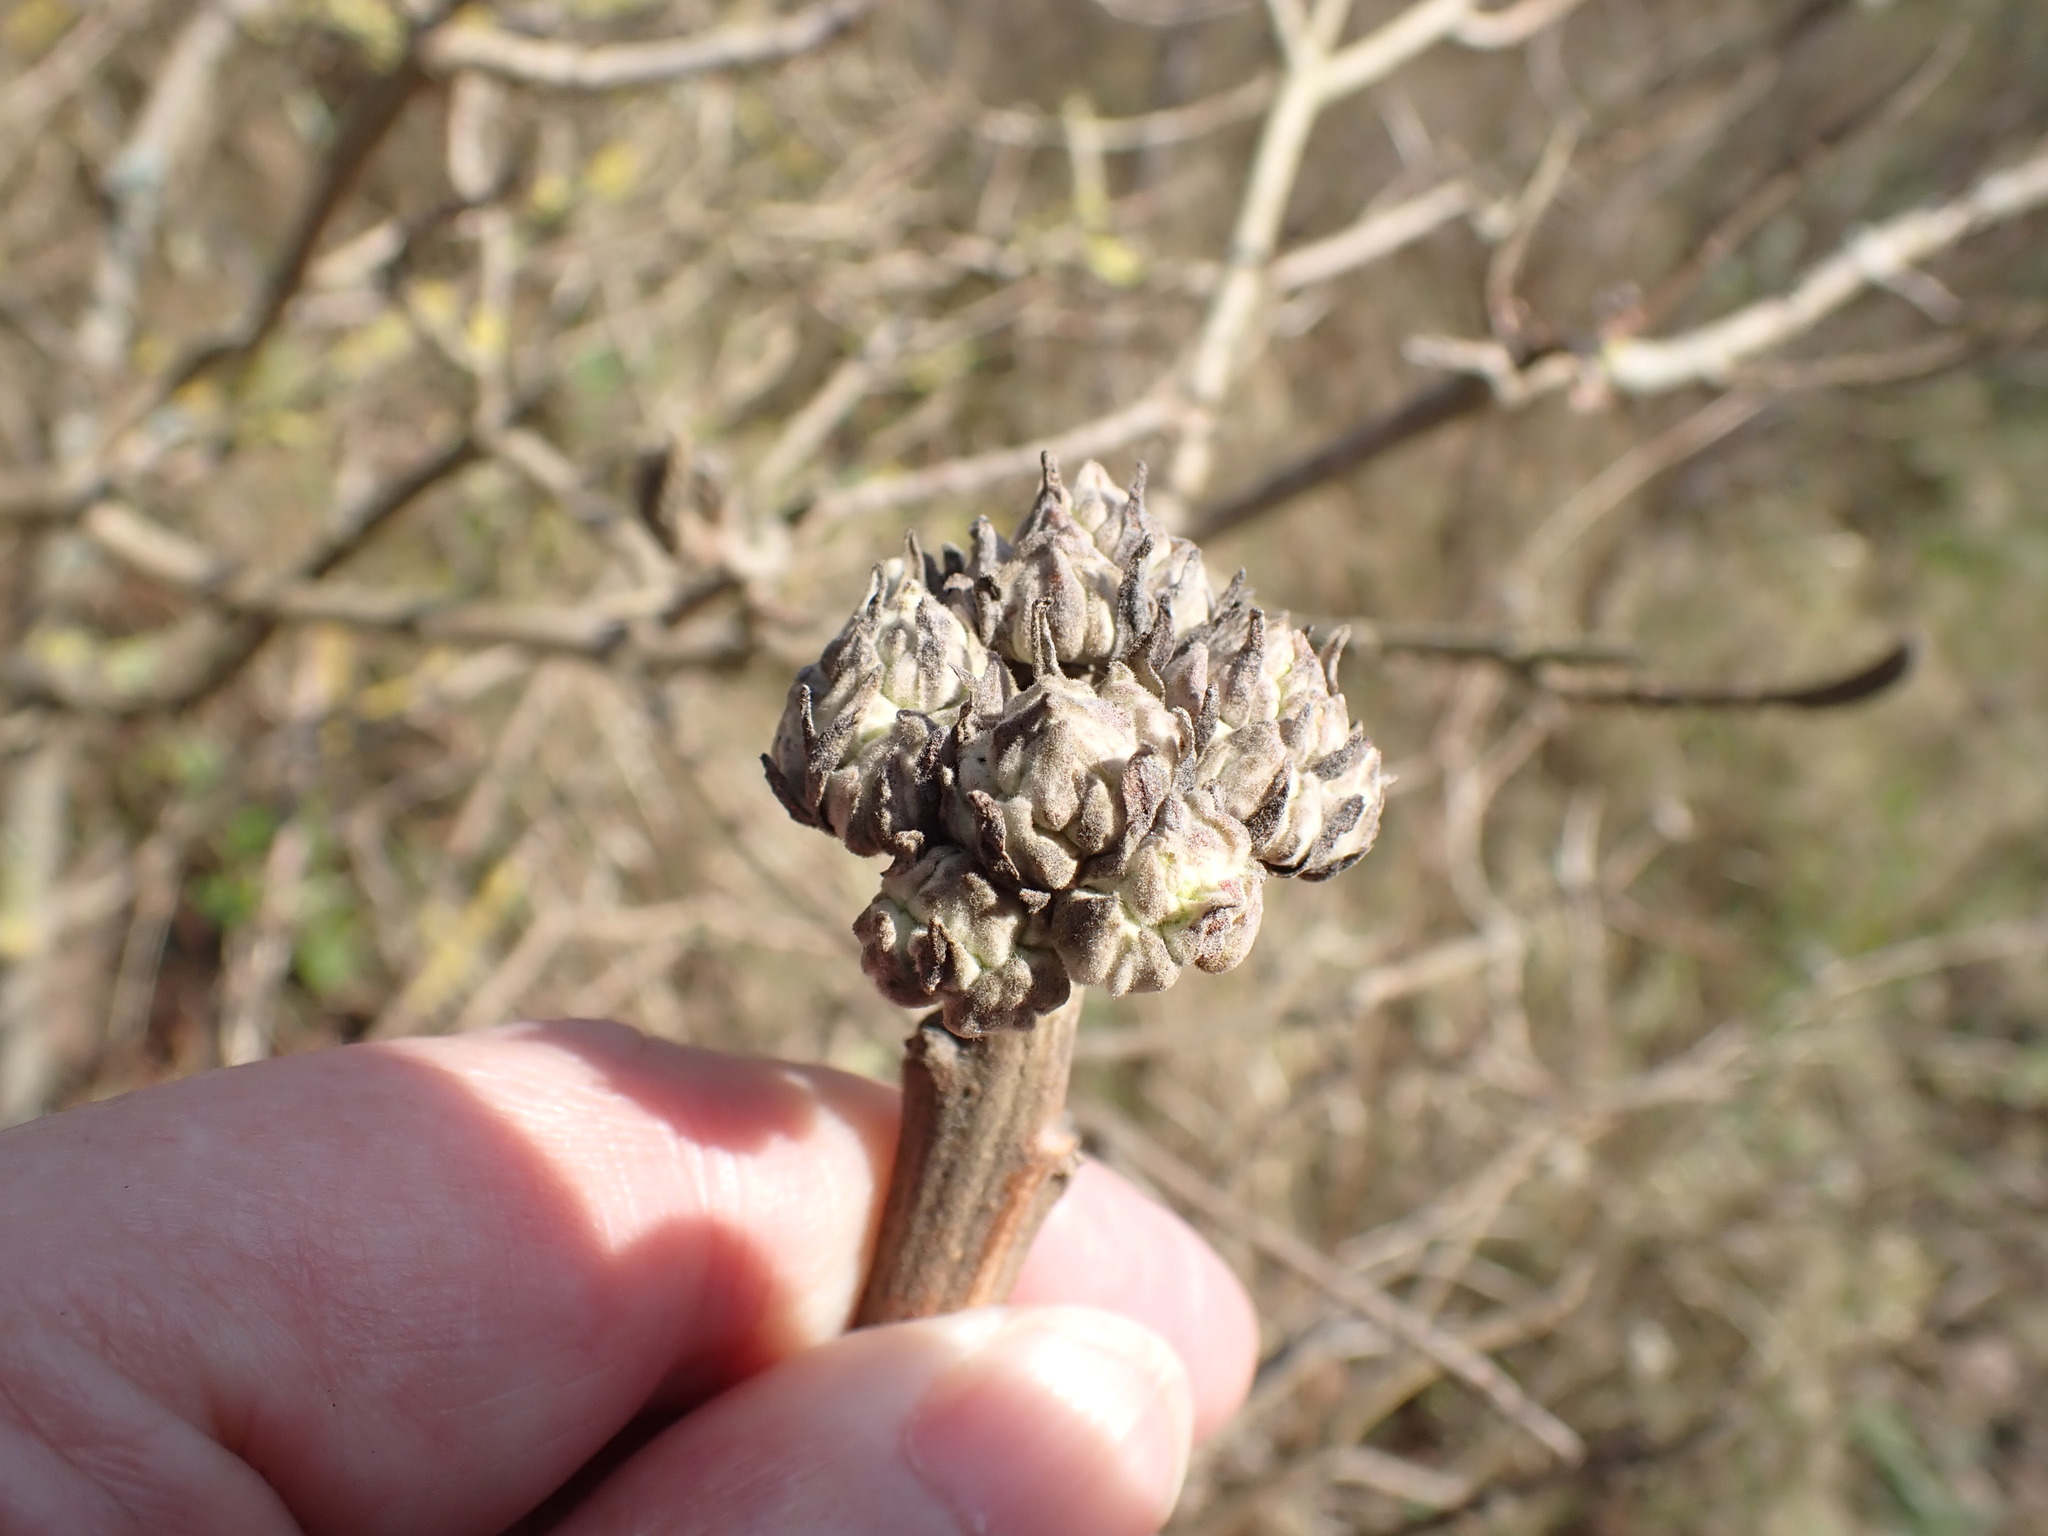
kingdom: Plantae
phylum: Tracheophyta
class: Magnoliopsida
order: Dipsacales
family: Viburnaceae
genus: Viburnum
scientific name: Viburnum lantana
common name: Wayfaring tree
